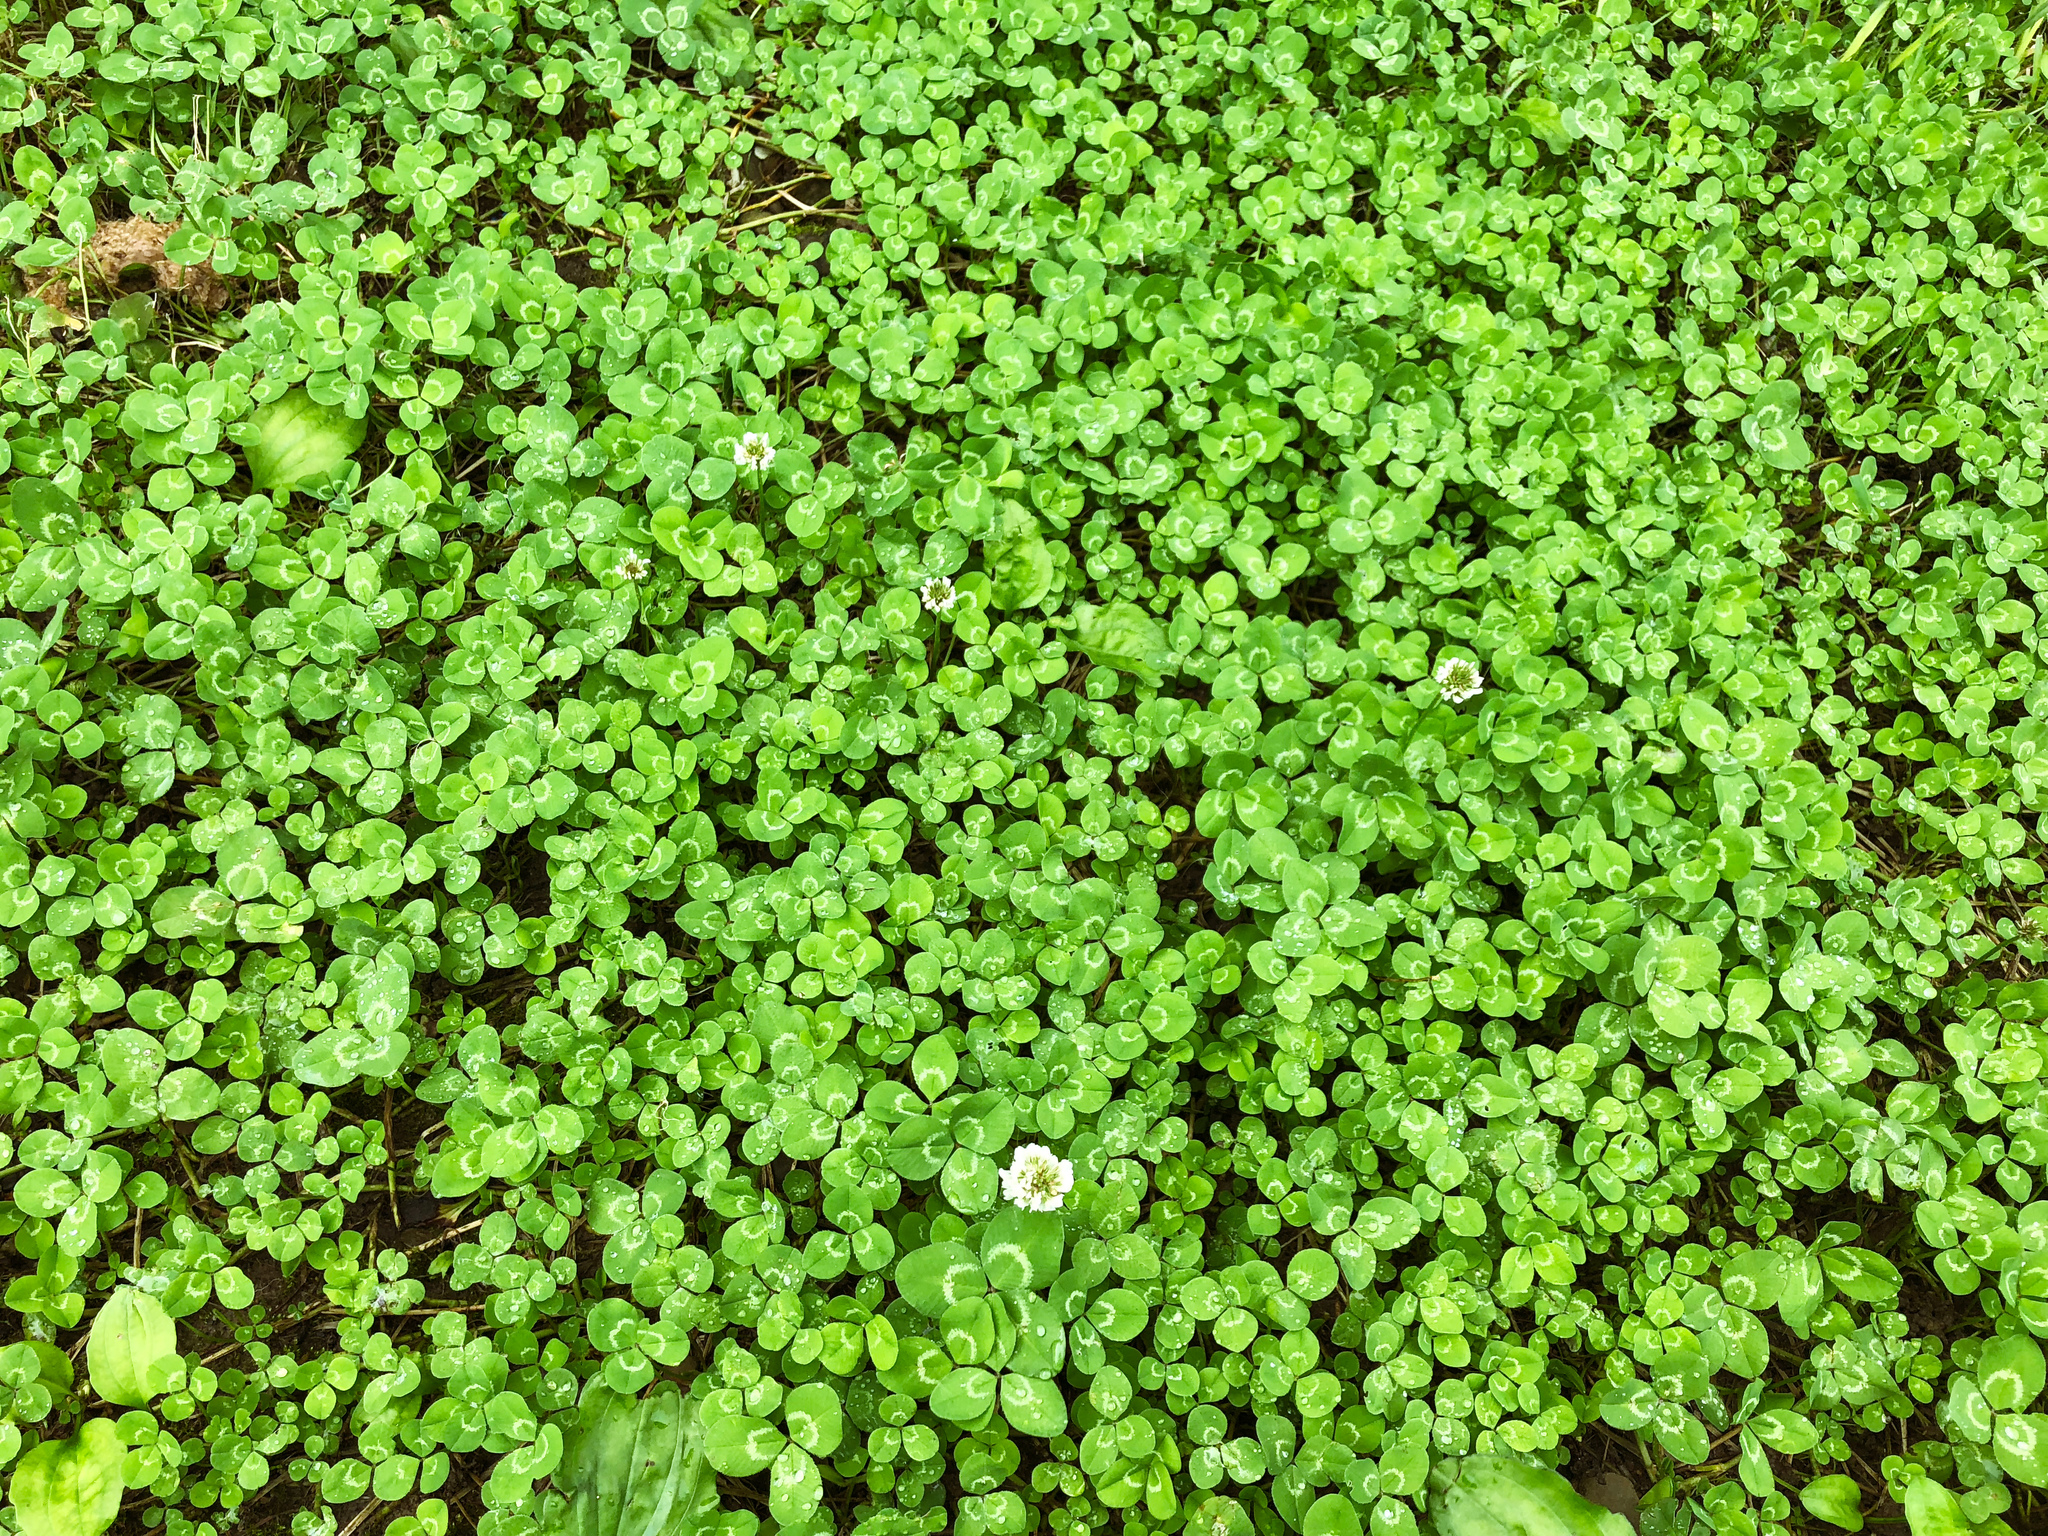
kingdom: Plantae
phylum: Tracheophyta
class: Magnoliopsida
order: Fabales
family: Fabaceae
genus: Trifolium
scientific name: Trifolium repens
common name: White clover
